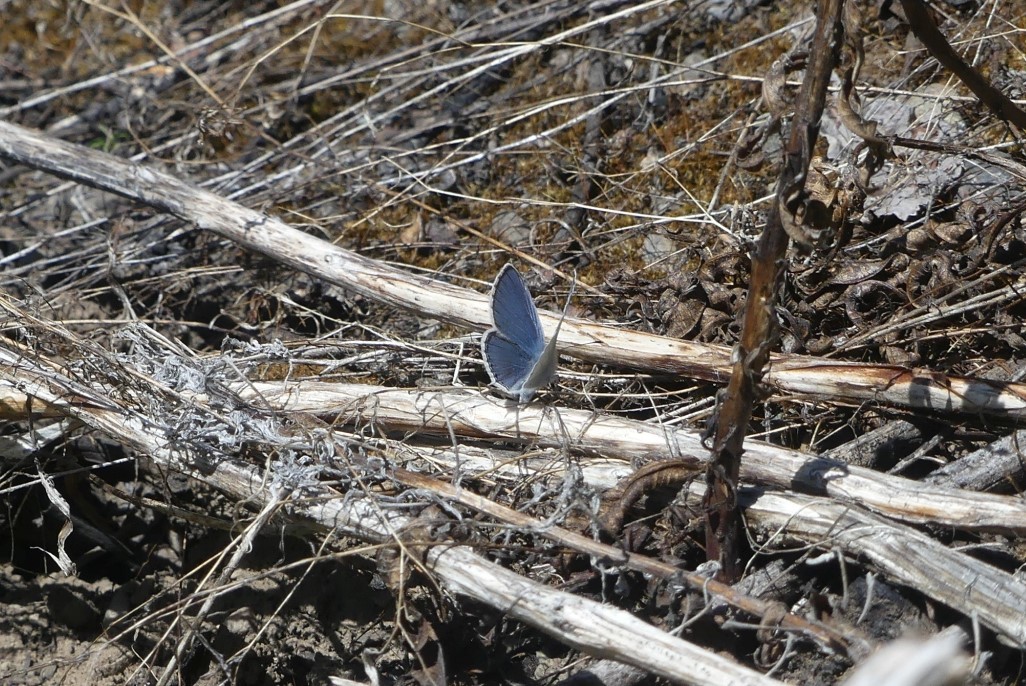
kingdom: Animalia
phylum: Arthropoda
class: Insecta
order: Lepidoptera
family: Lycaenidae
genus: Elkalyce
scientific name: Elkalyce amyntula
